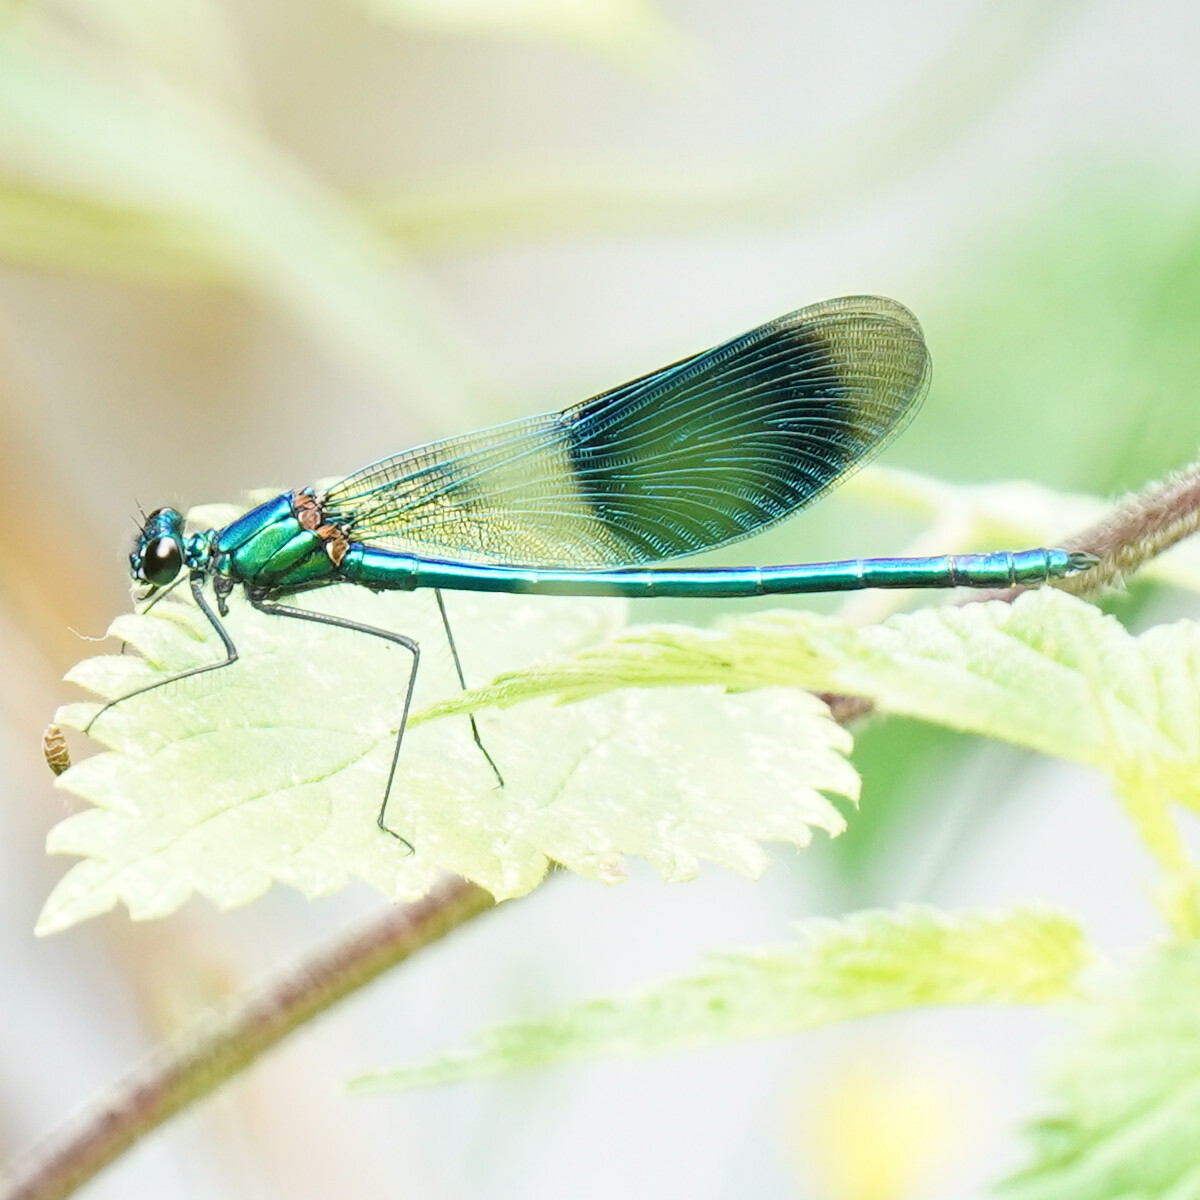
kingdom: Animalia
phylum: Arthropoda
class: Insecta
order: Odonata
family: Calopterygidae
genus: Calopteryx
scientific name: Calopteryx splendens
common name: Banded demoiselle
